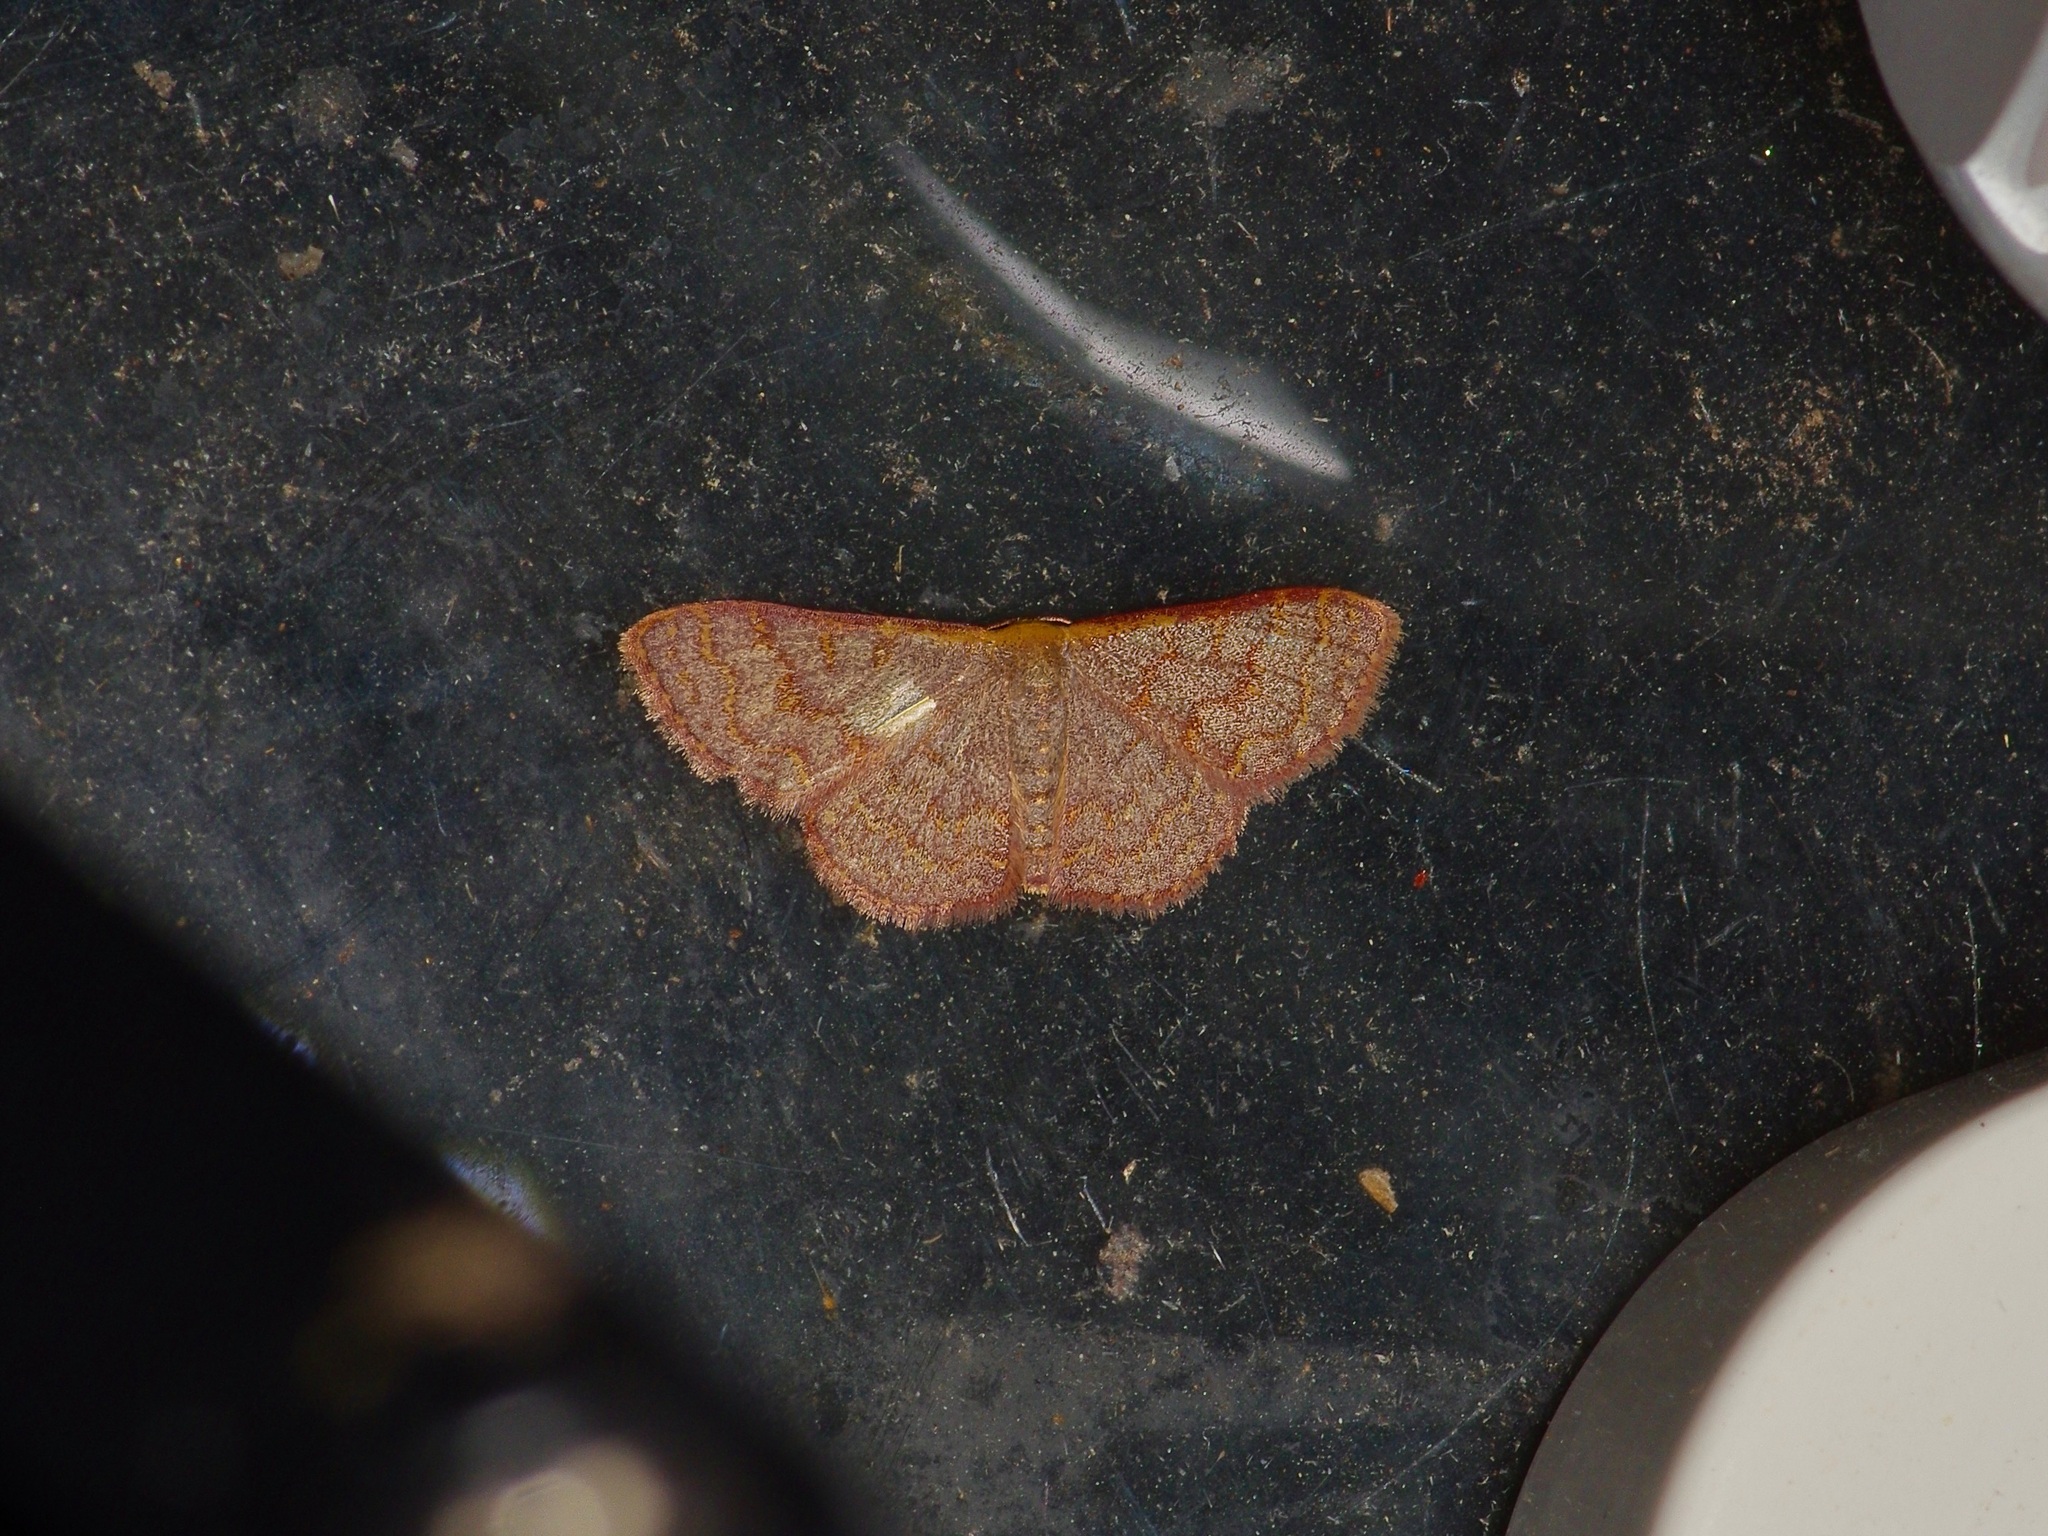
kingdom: Animalia
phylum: Arthropoda
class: Insecta
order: Lepidoptera
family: Geometridae
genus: Leptostales
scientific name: Leptostales pannaria
